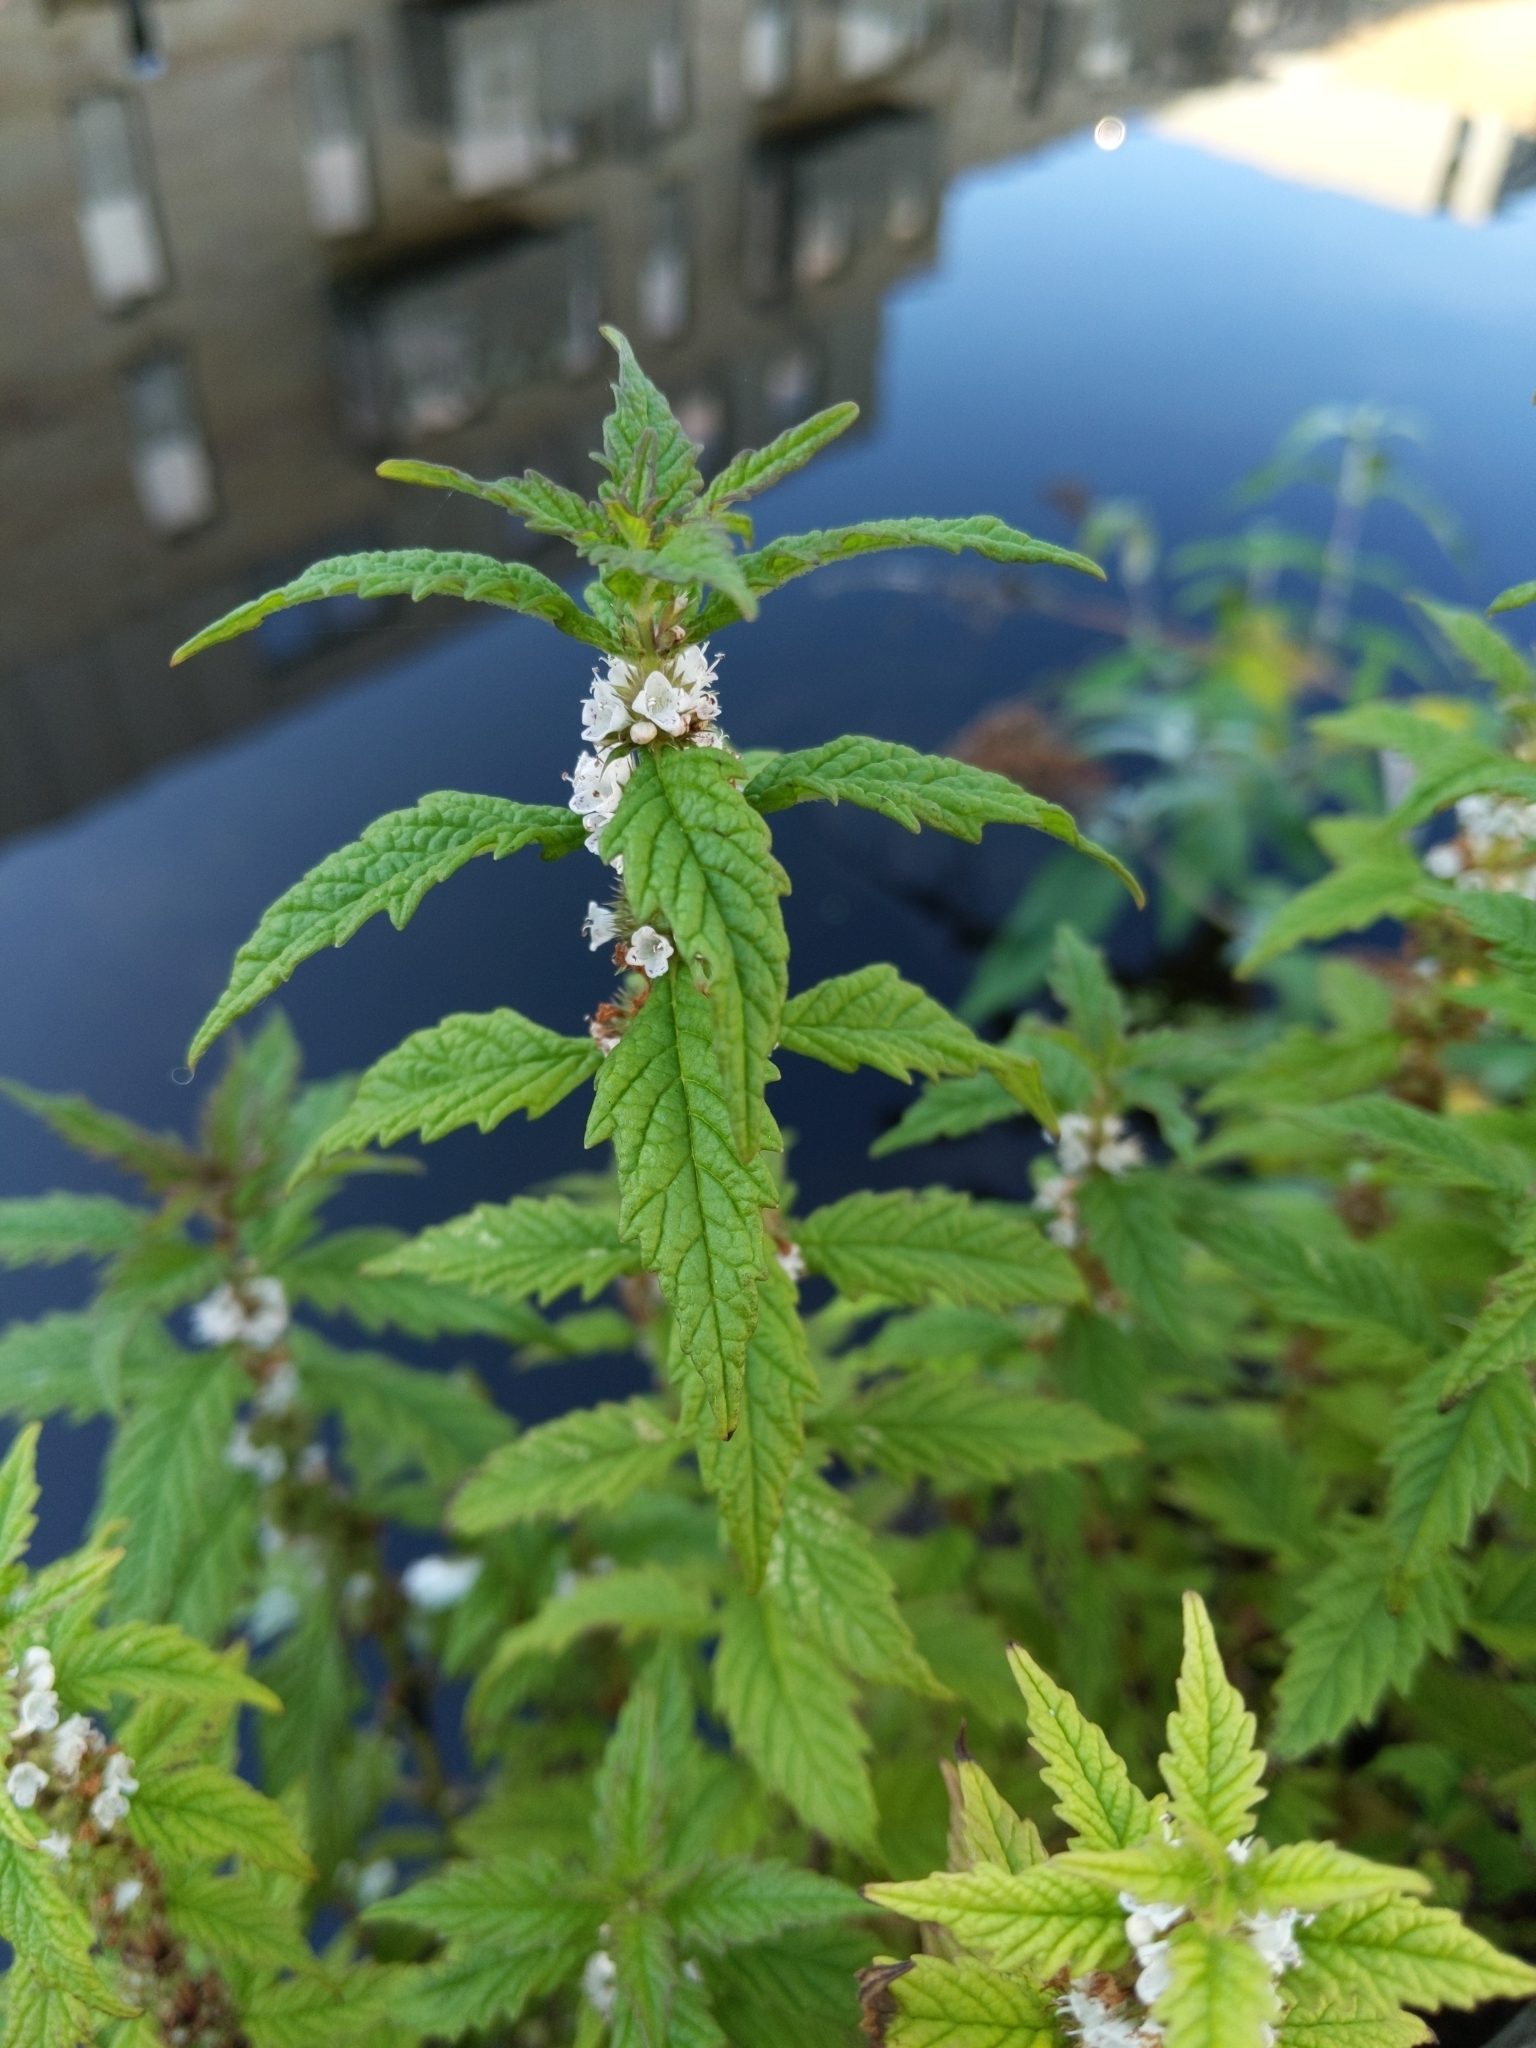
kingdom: Plantae
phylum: Tracheophyta
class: Magnoliopsida
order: Lamiales
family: Lamiaceae
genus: Lycopus
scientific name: Lycopus europaeus
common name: European bugleweed
